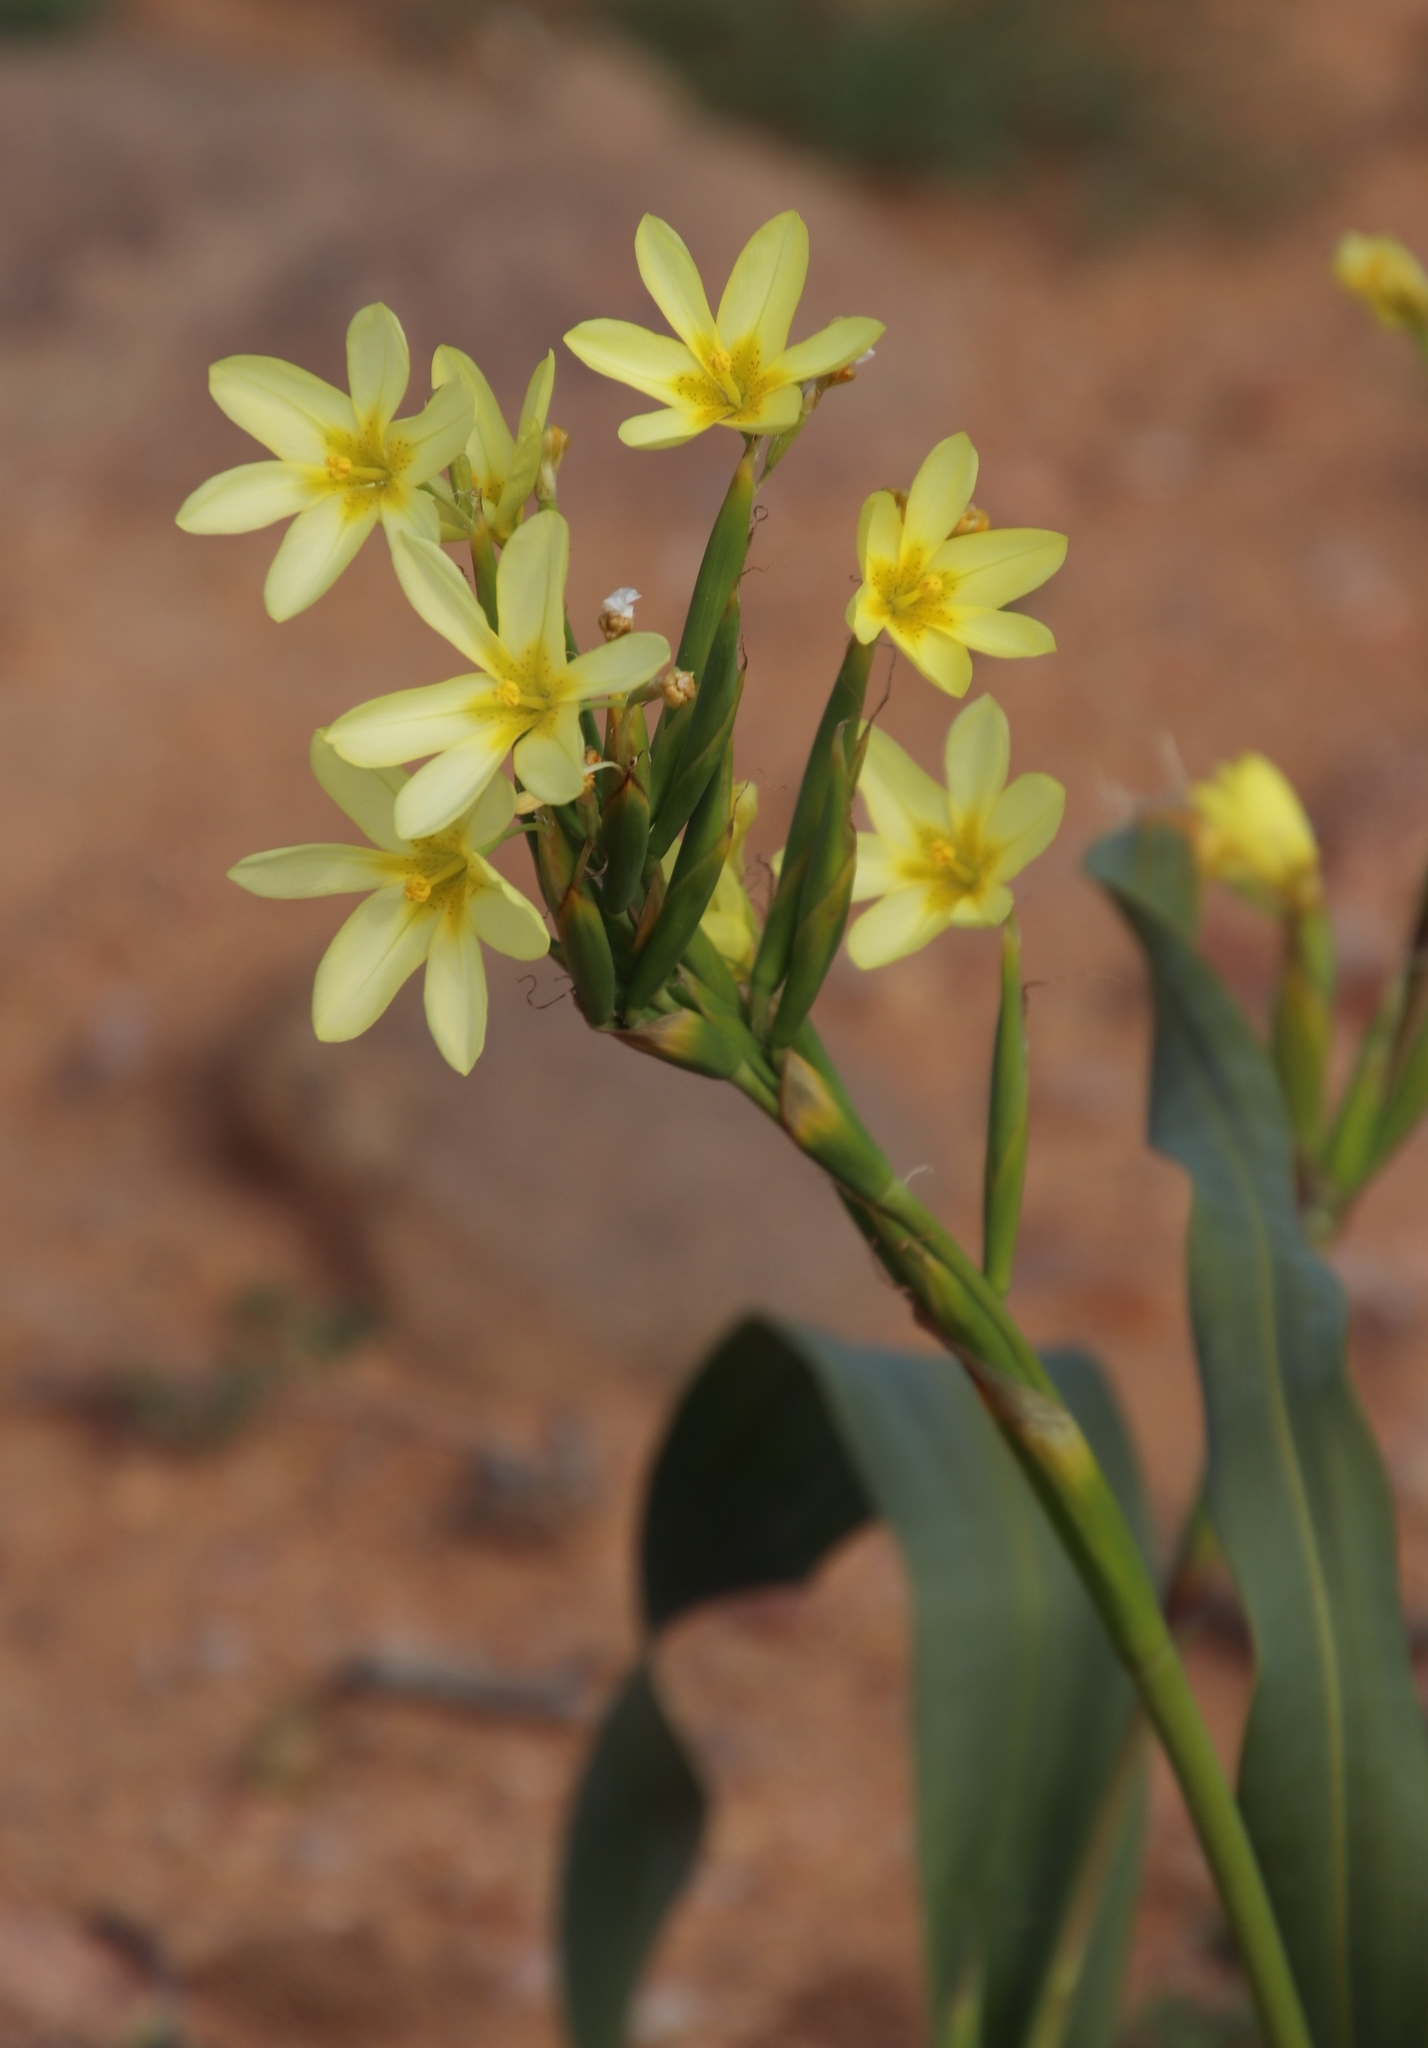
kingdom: Plantae
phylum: Tracheophyta
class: Liliopsida
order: Asparagales
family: Iridaceae
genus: Moraea
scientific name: Moraea bifida
